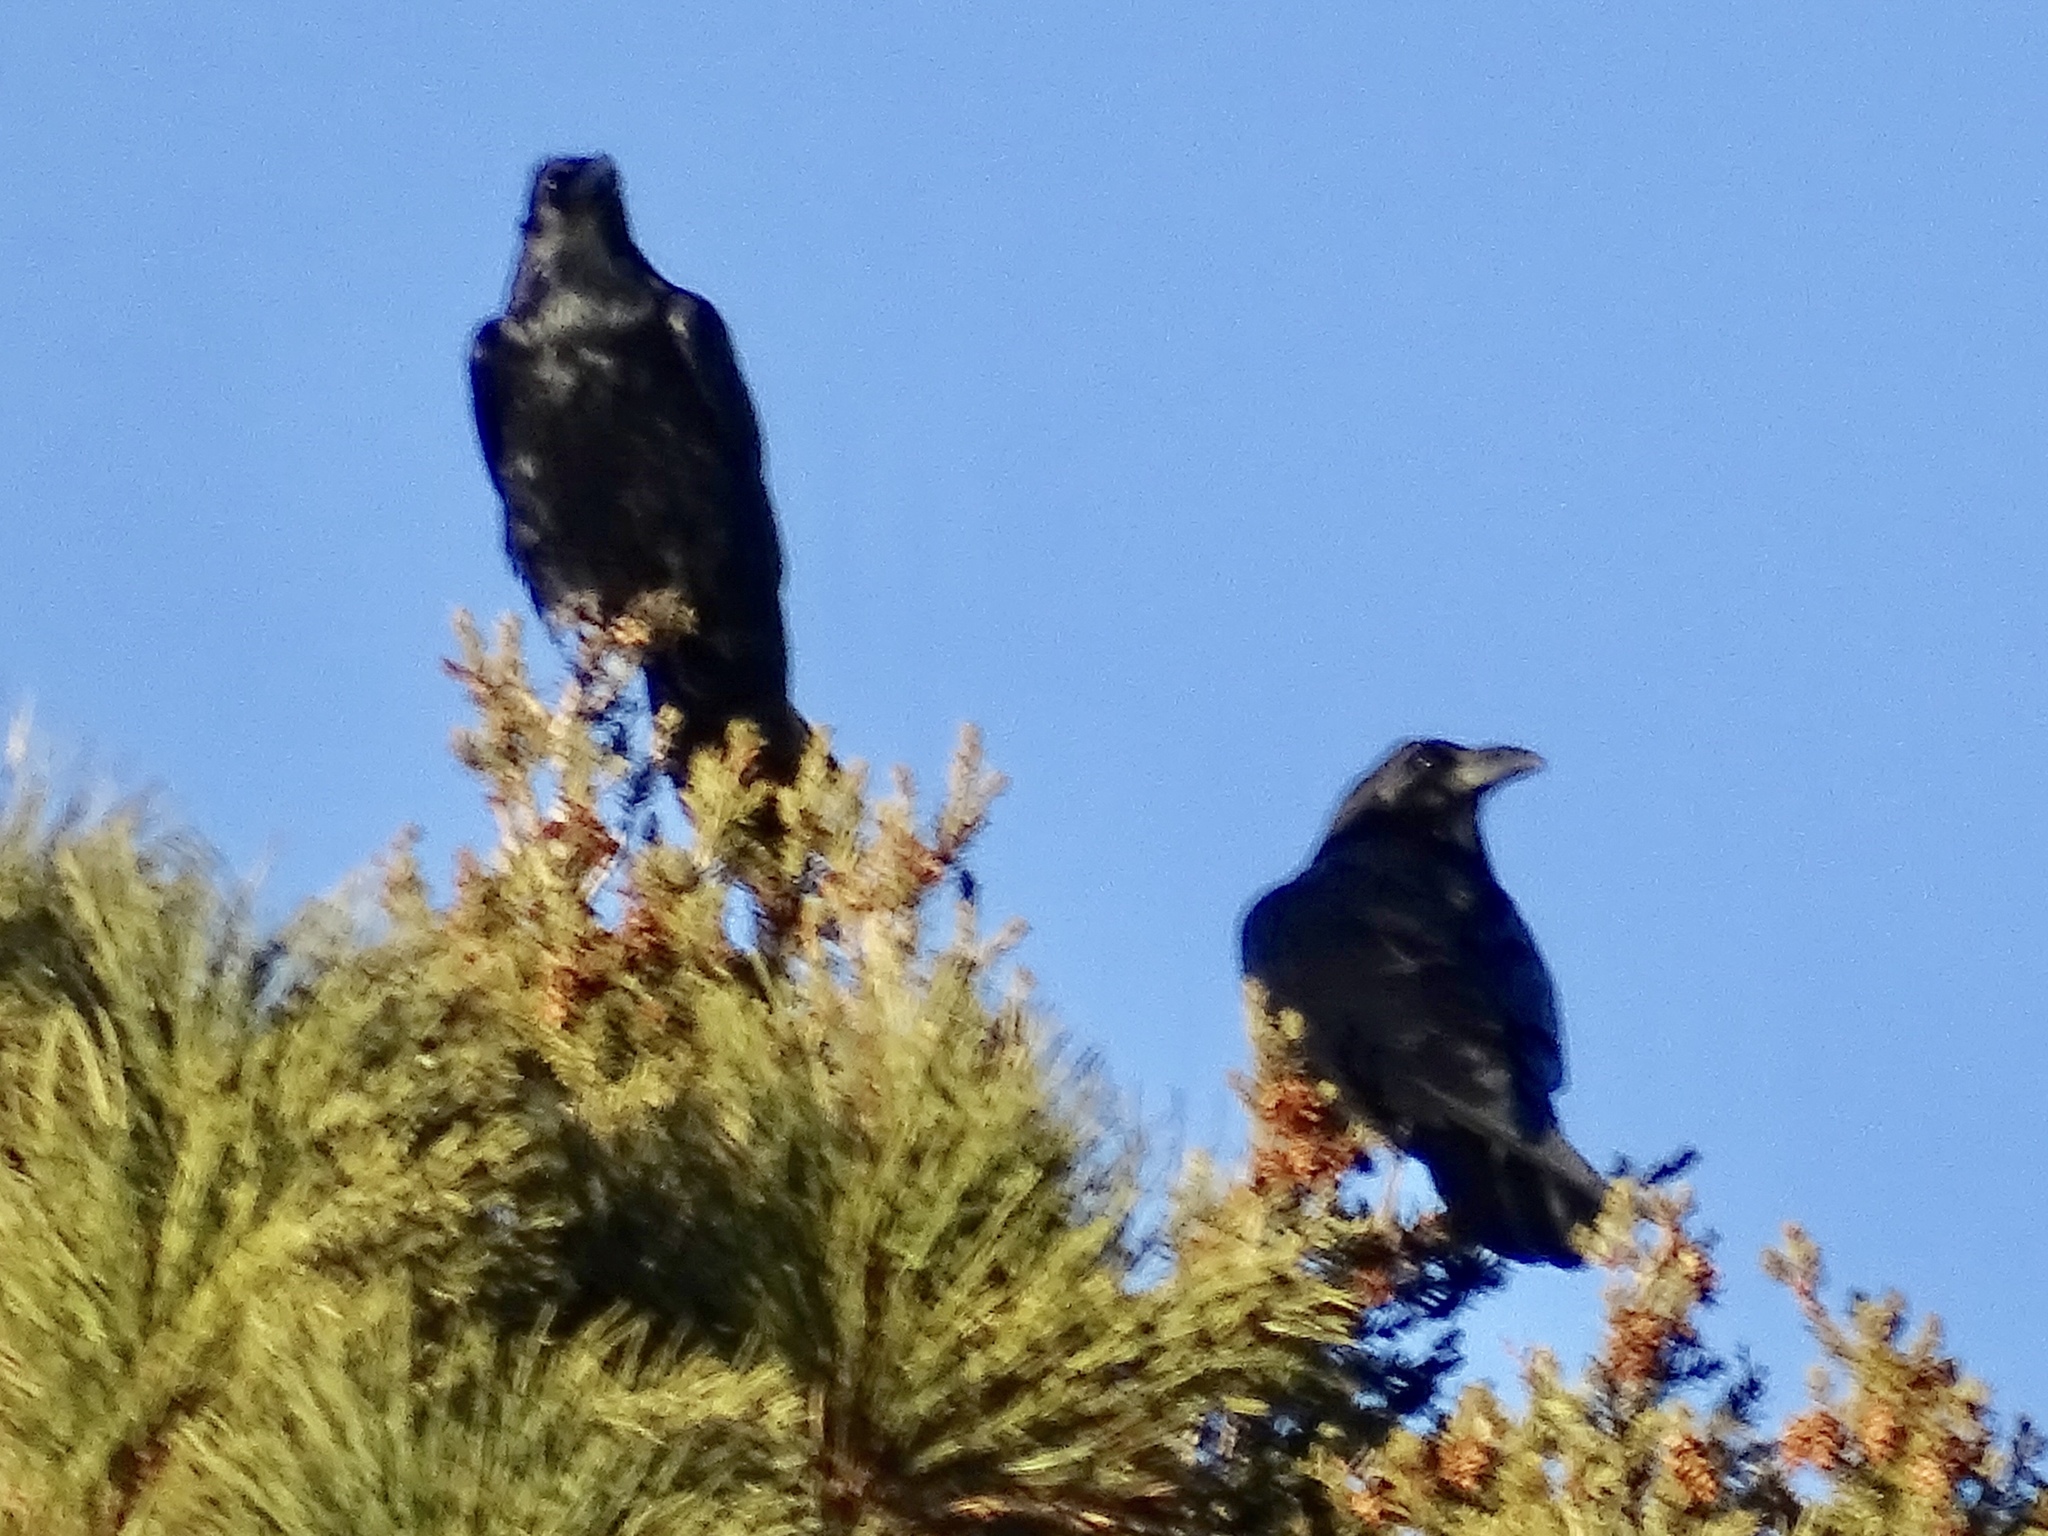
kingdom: Animalia
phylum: Chordata
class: Aves
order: Passeriformes
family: Corvidae
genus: Corvus
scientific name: Corvus corax
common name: Common raven
